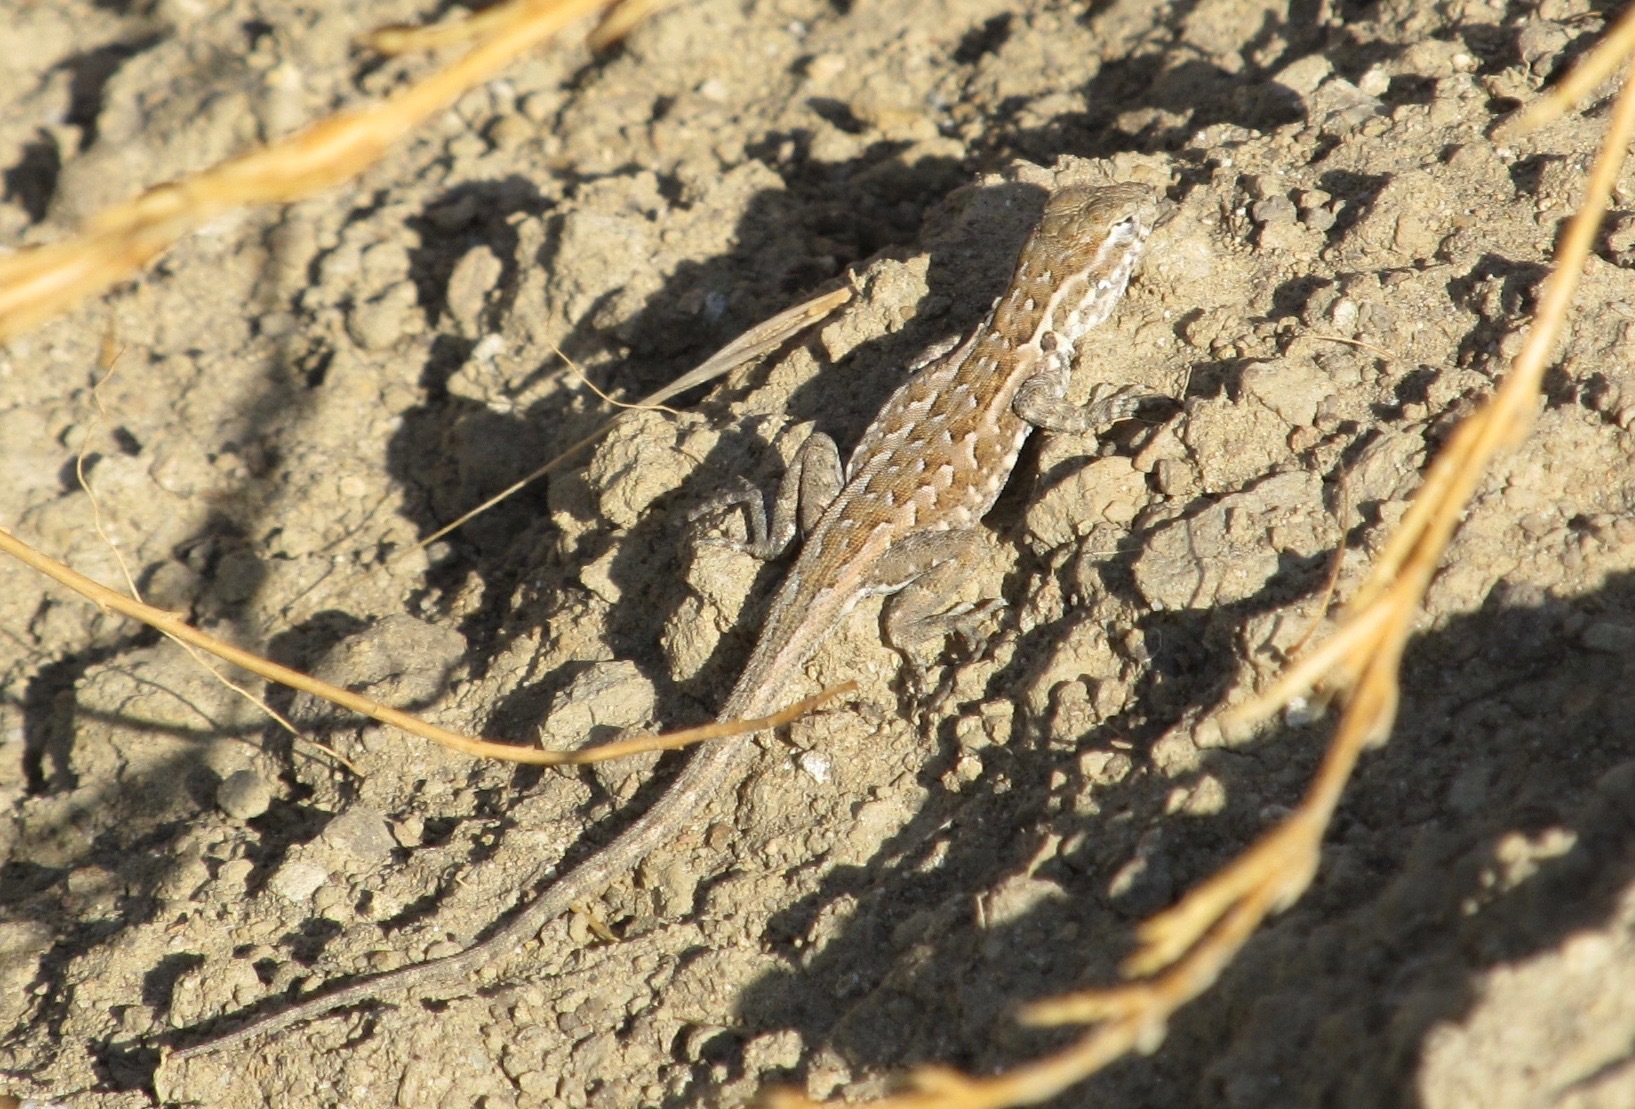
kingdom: Animalia
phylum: Chordata
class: Squamata
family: Phrynosomatidae
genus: Uta
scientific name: Uta stansburiana
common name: Side-blotched lizard
